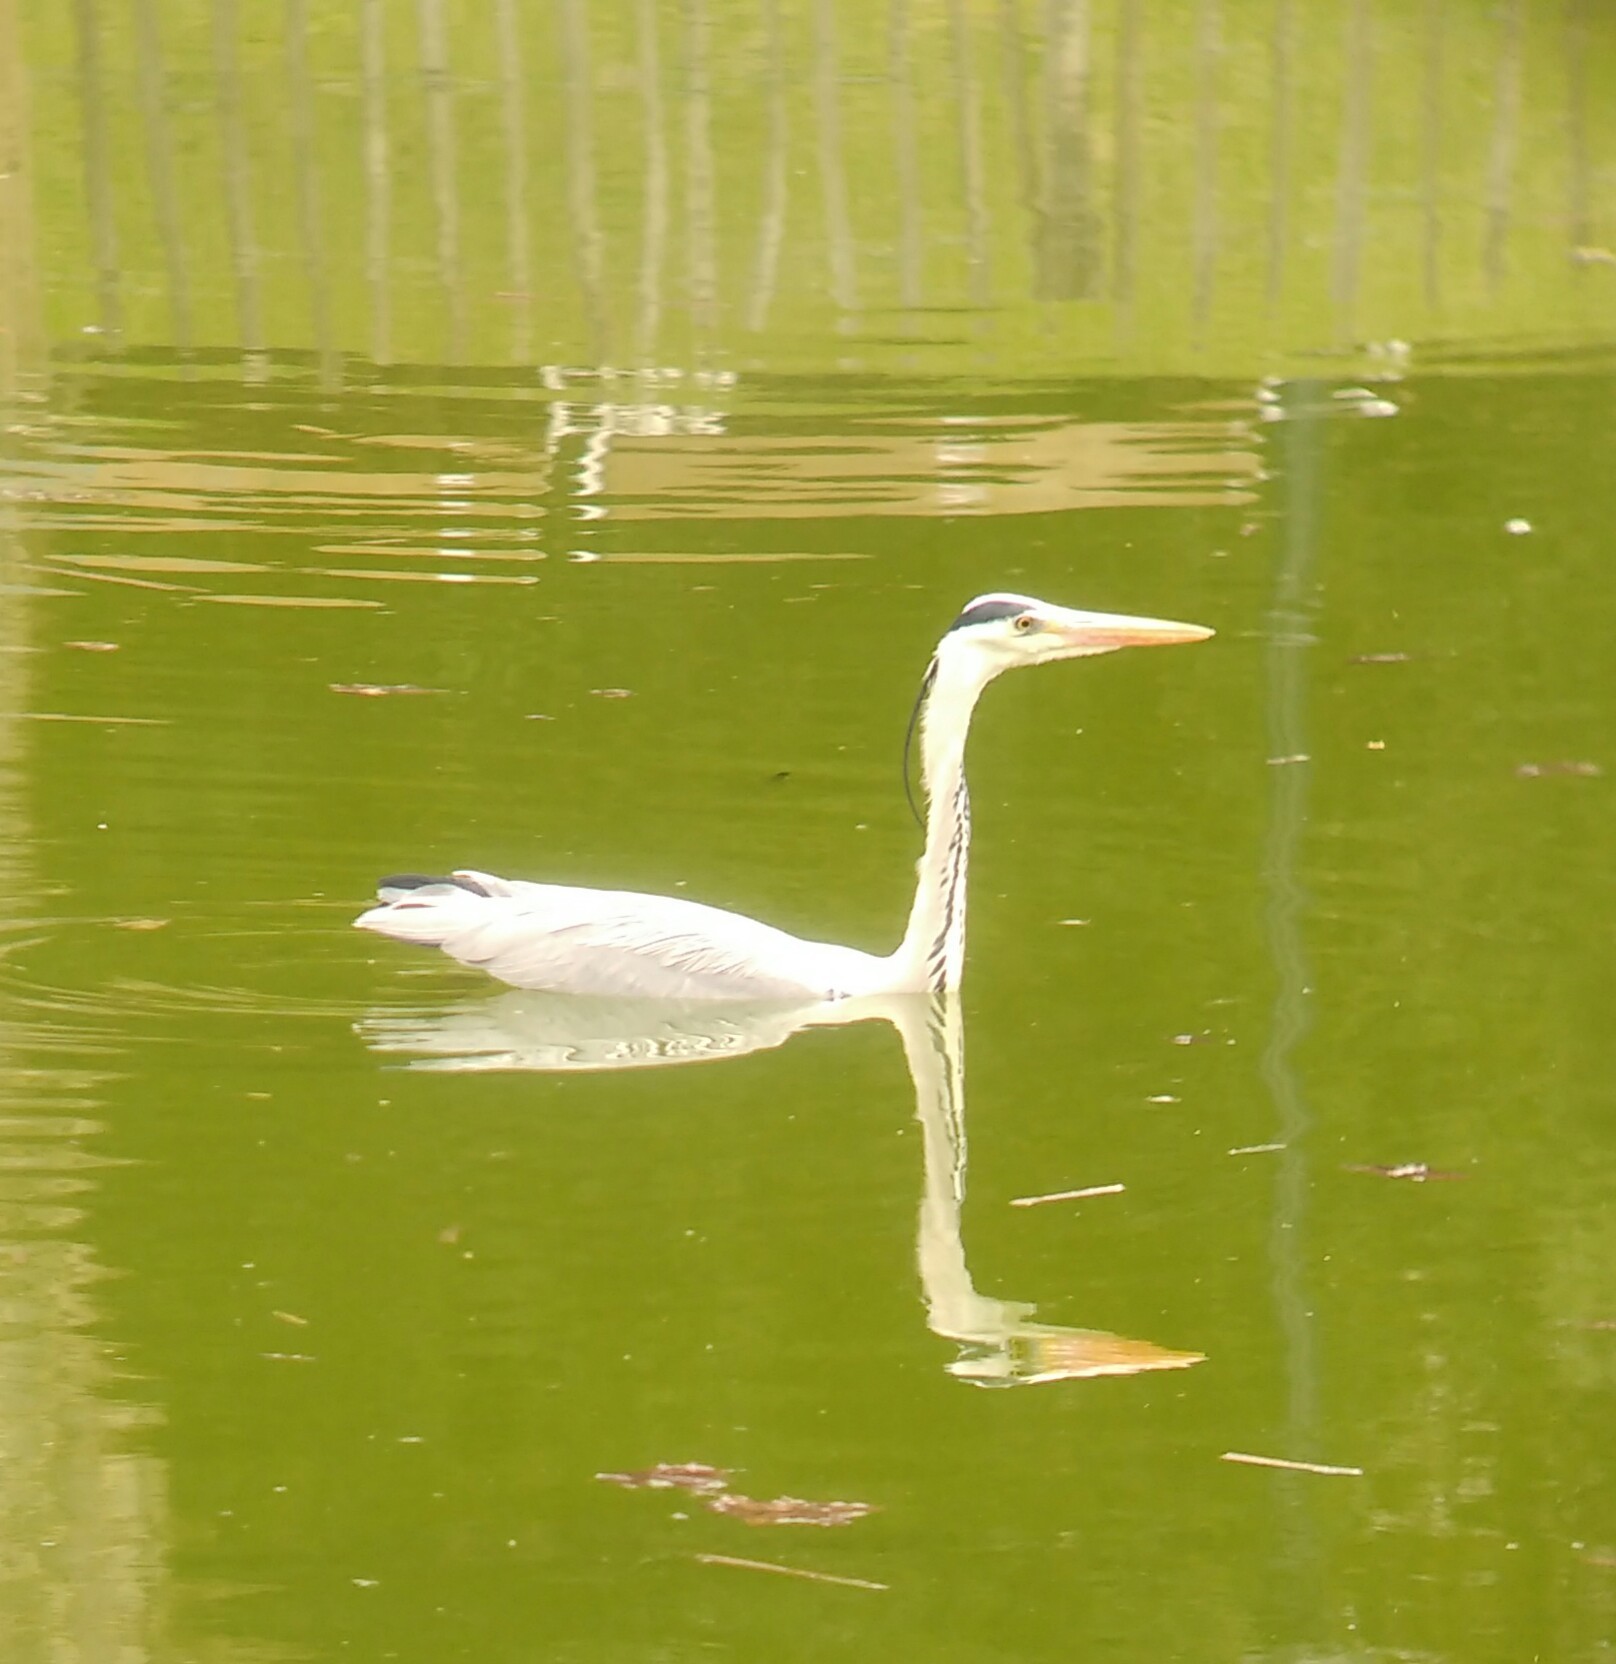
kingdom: Animalia
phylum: Chordata
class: Aves
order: Pelecaniformes
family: Ardeidae
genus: Ardea
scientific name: Ardea cinerea
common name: Grey heron
